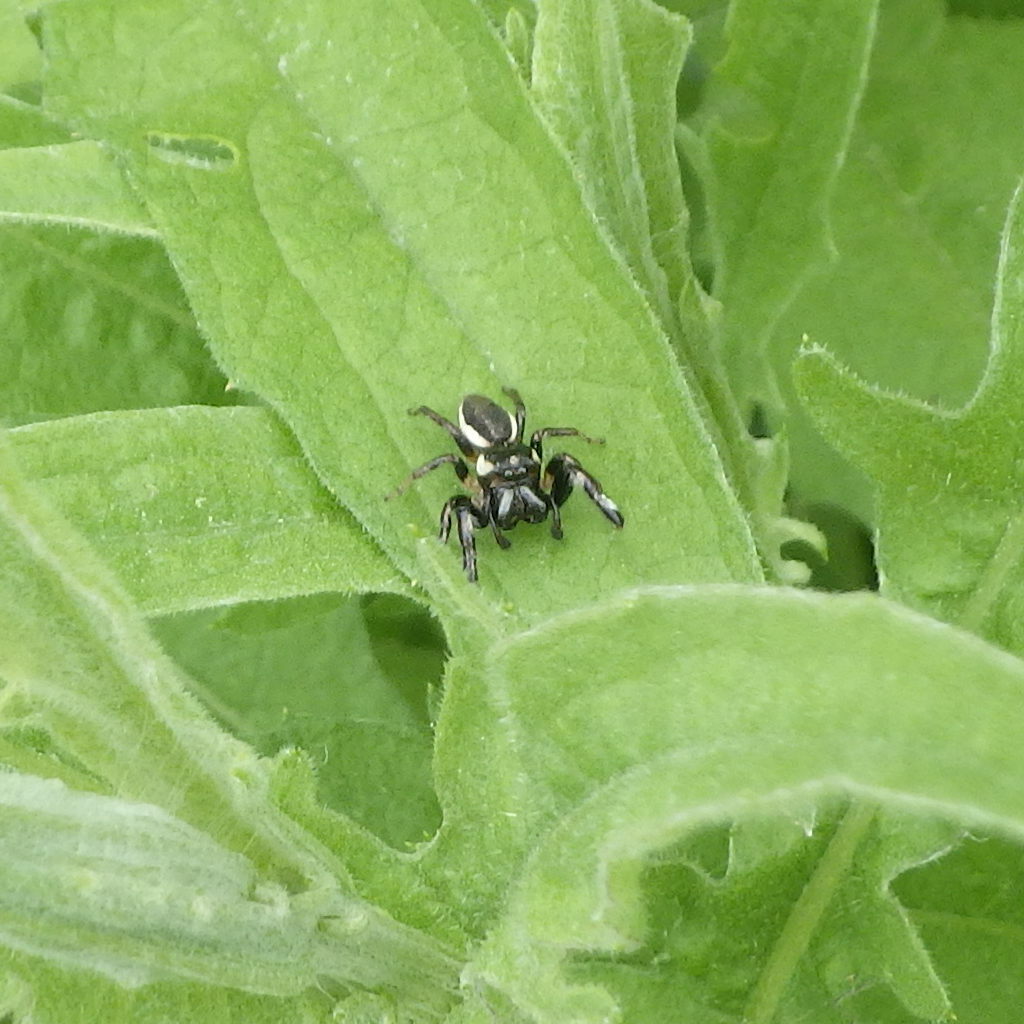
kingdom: Animalia
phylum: Arthropoda
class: Arachnida
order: Araneae
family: Salticidae
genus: Eris
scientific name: Eris militaris
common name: Bronze jumper
